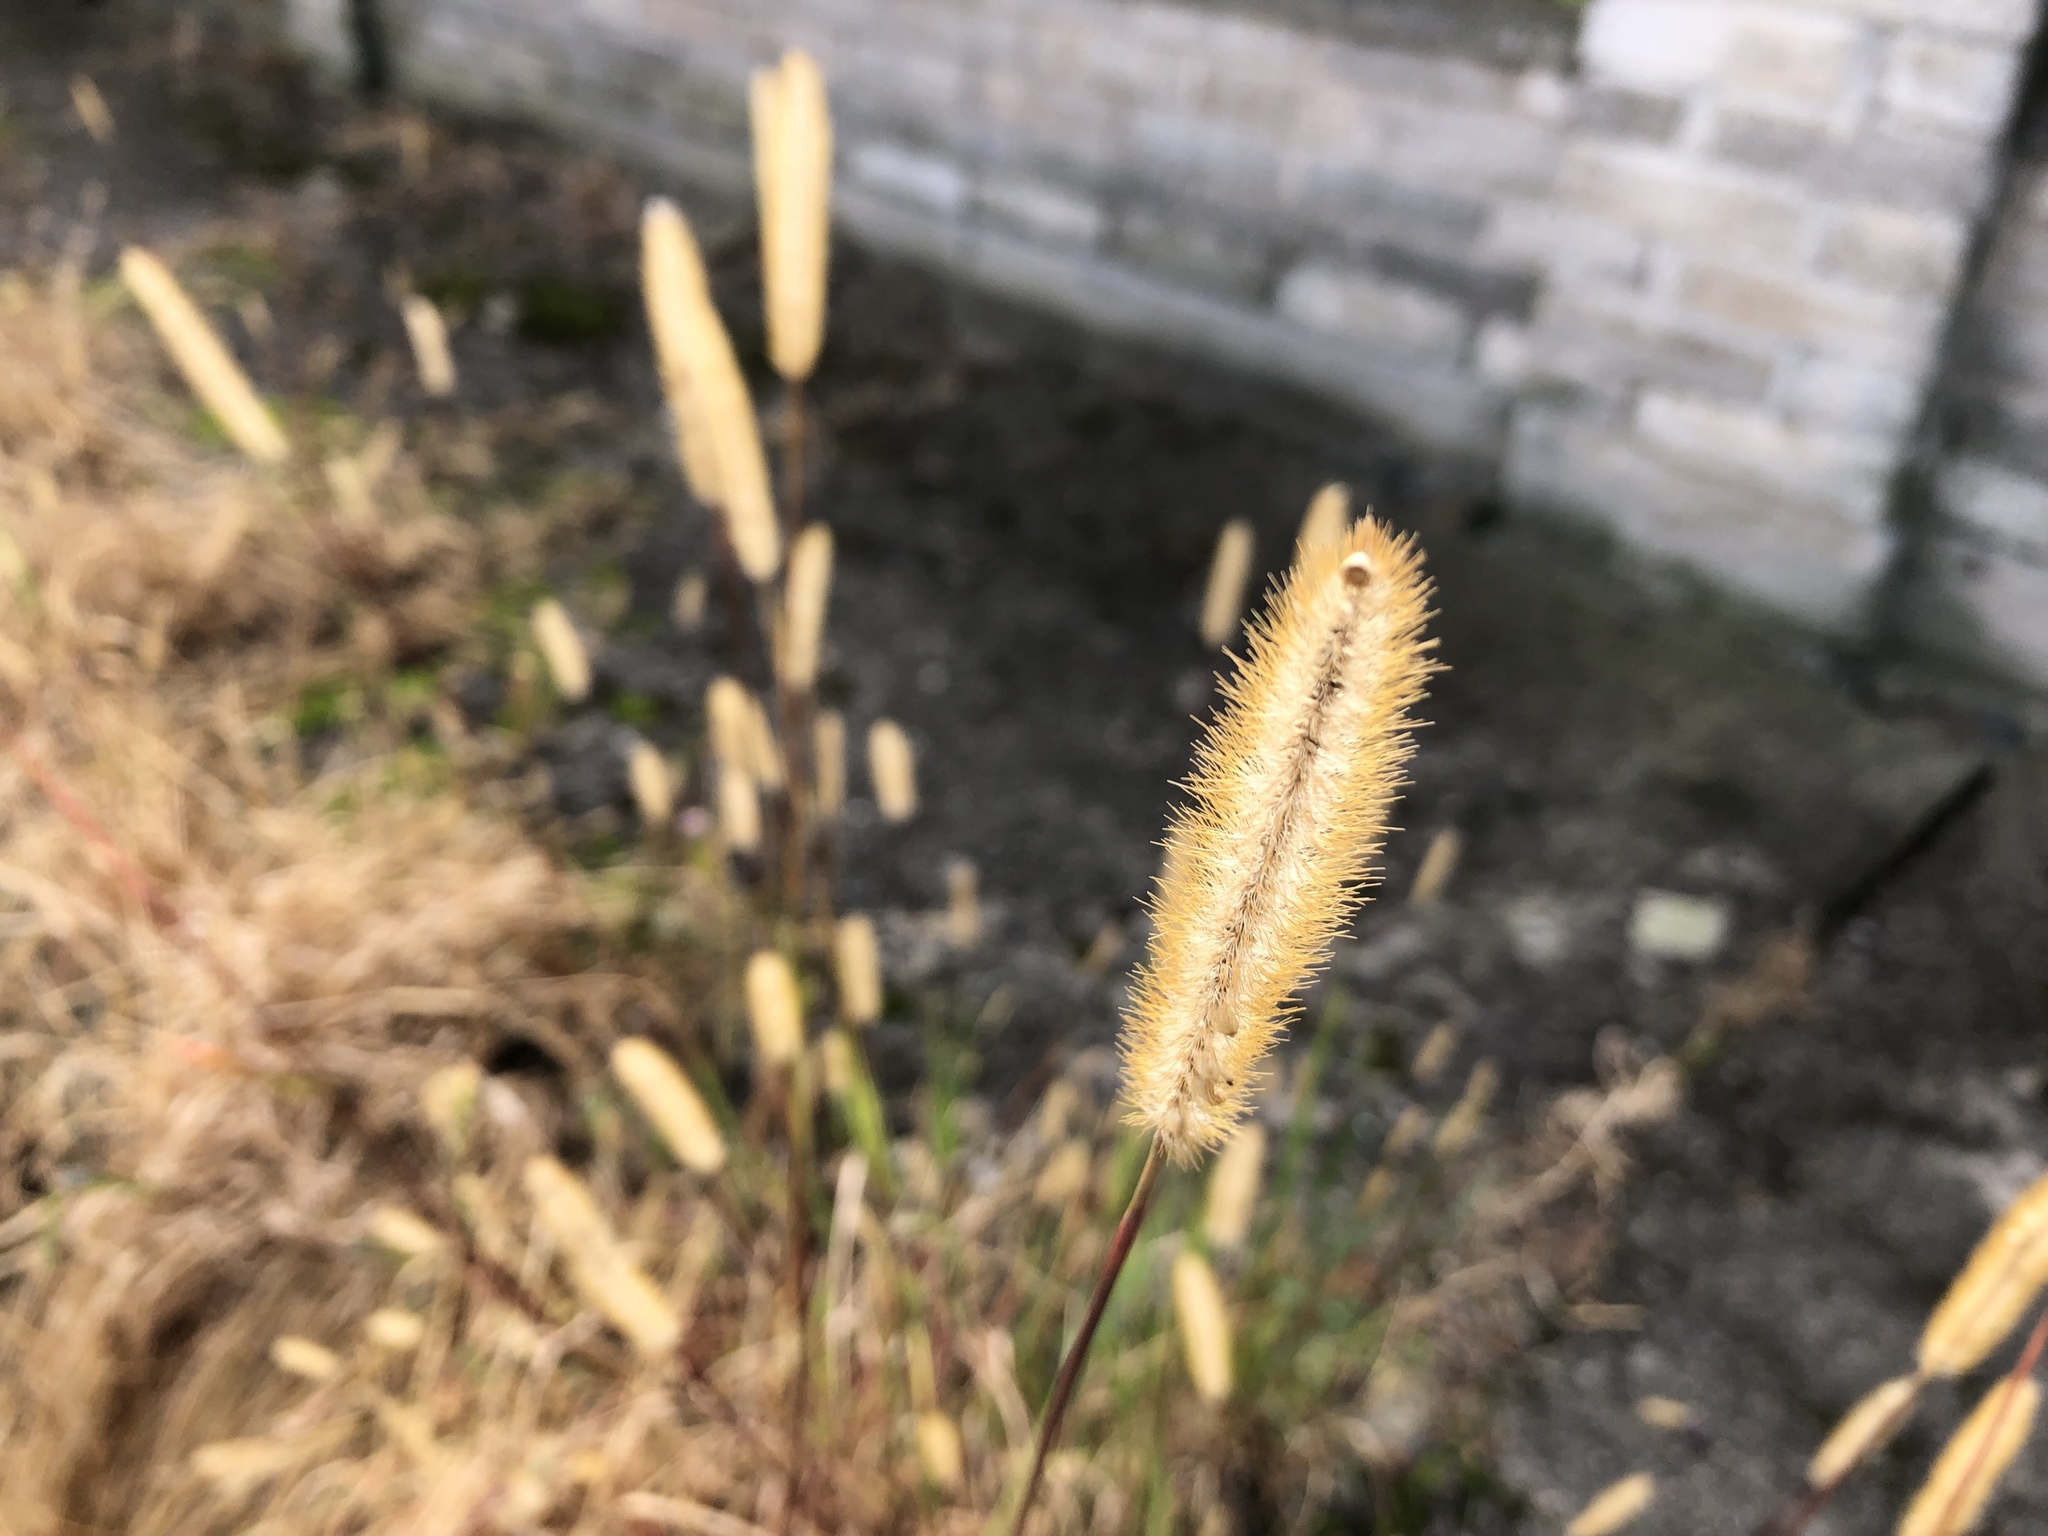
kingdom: Plantae
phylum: Tracheophyta
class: Liliopsida
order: Poales
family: Poaceae
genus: Setaria
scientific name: Setaria pumila
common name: Yellow bristle-grass
